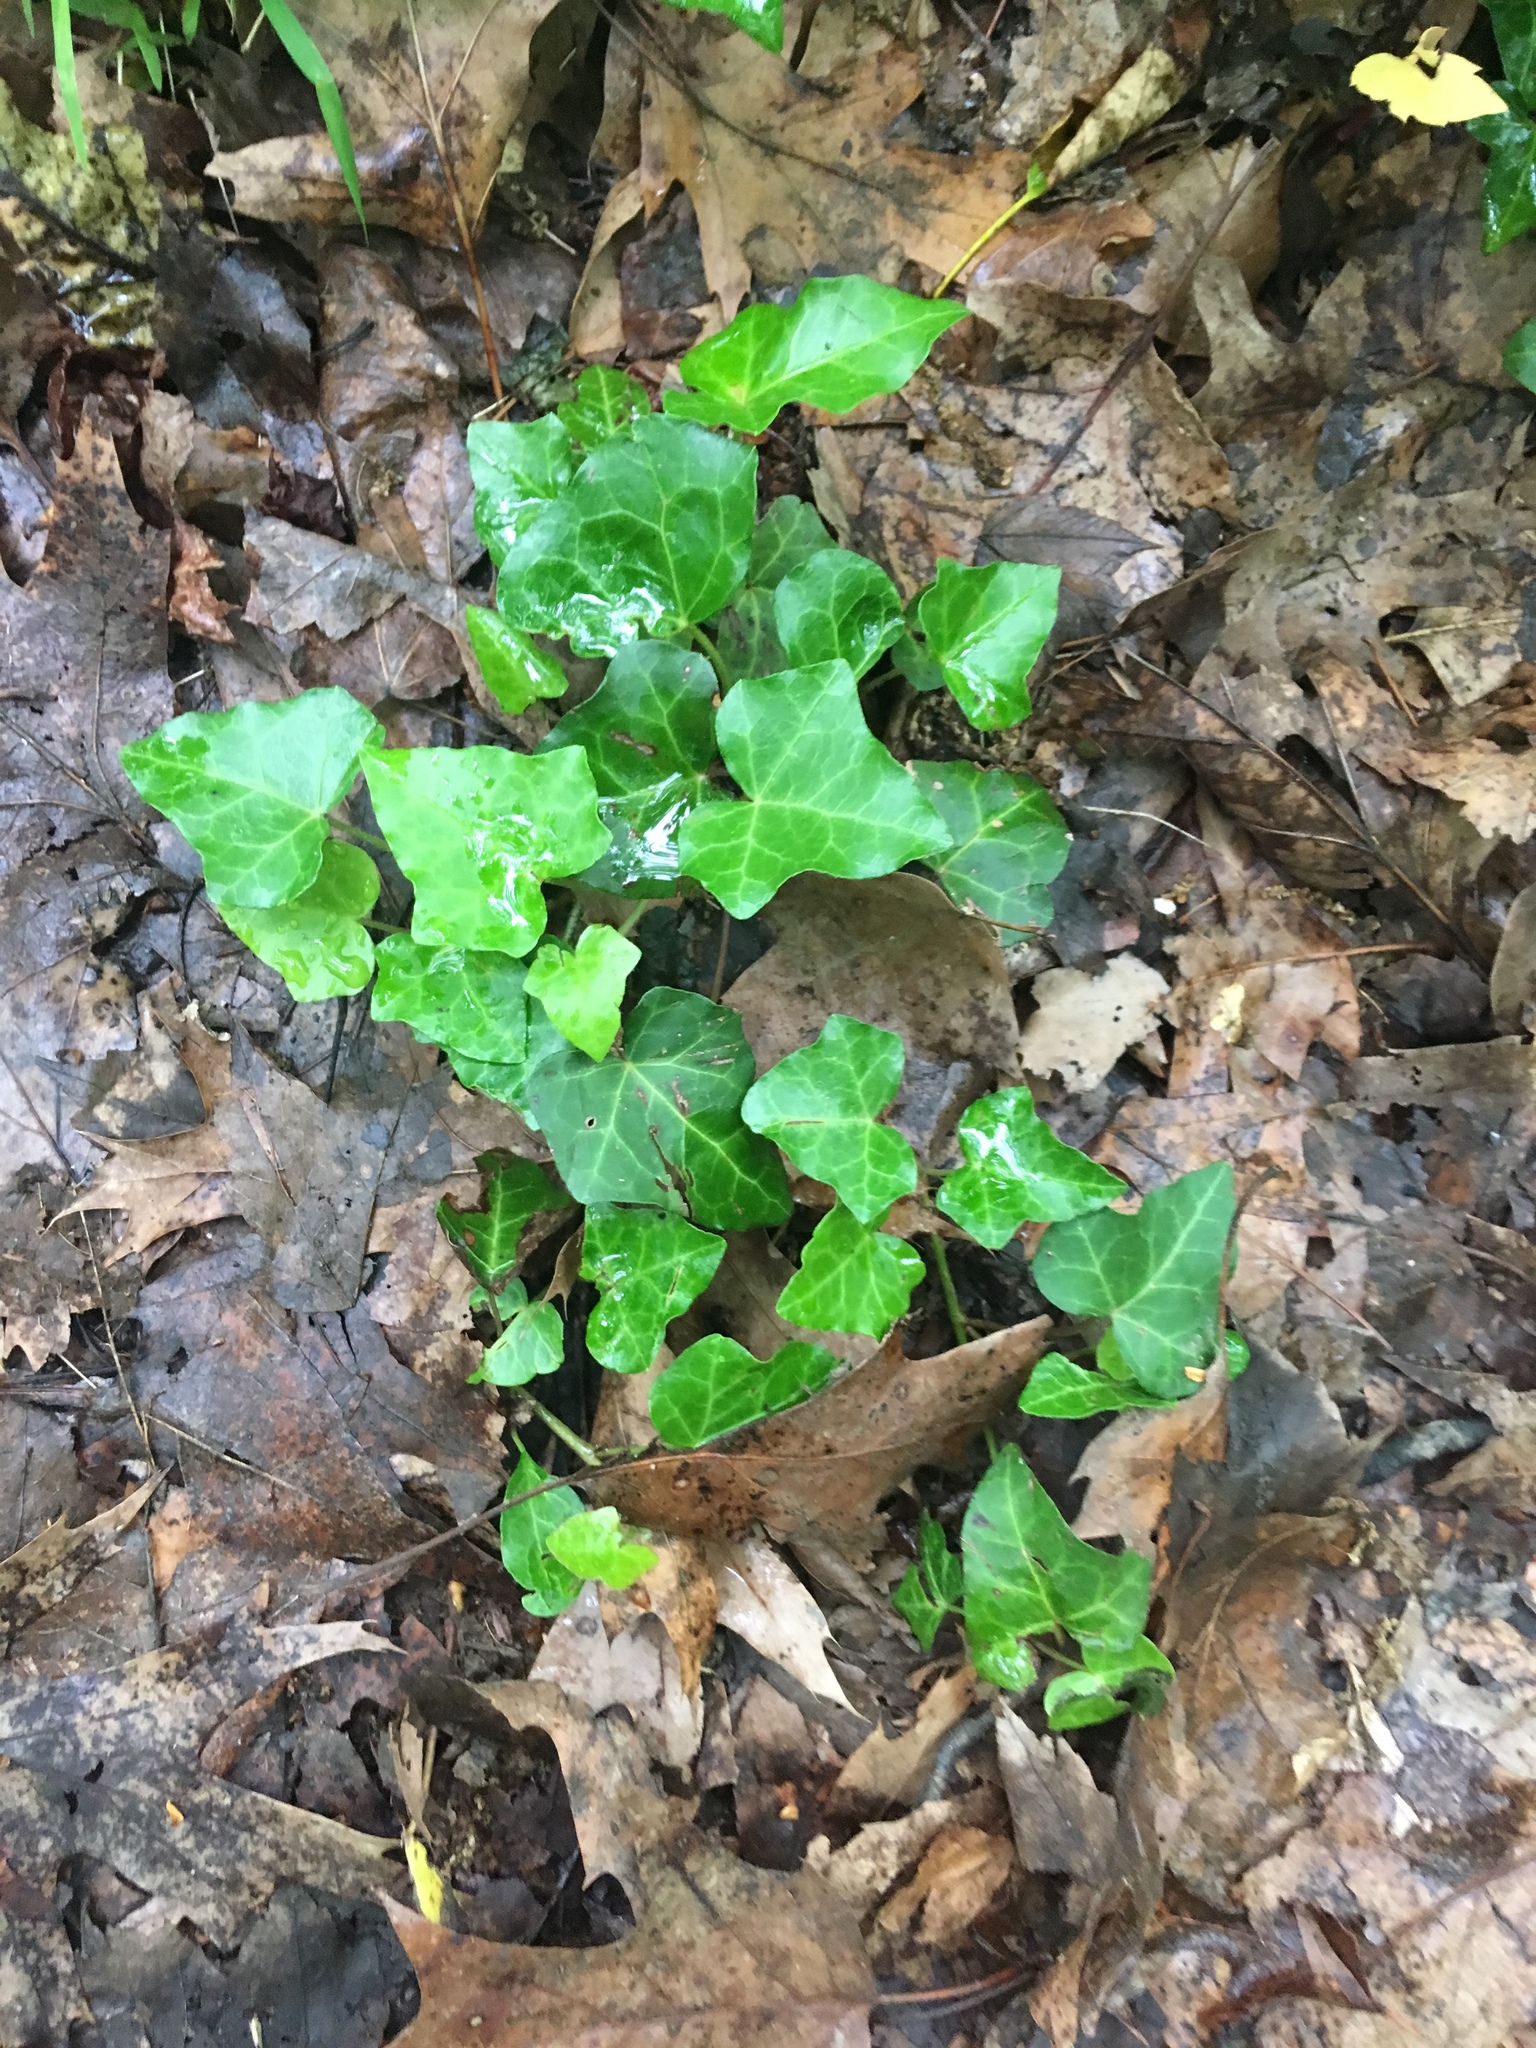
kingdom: Plantae
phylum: Tracheophyta
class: Magnoliopsida
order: Apiales
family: Araliaceae
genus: Hedera
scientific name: Hedera helix
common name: Ivy
